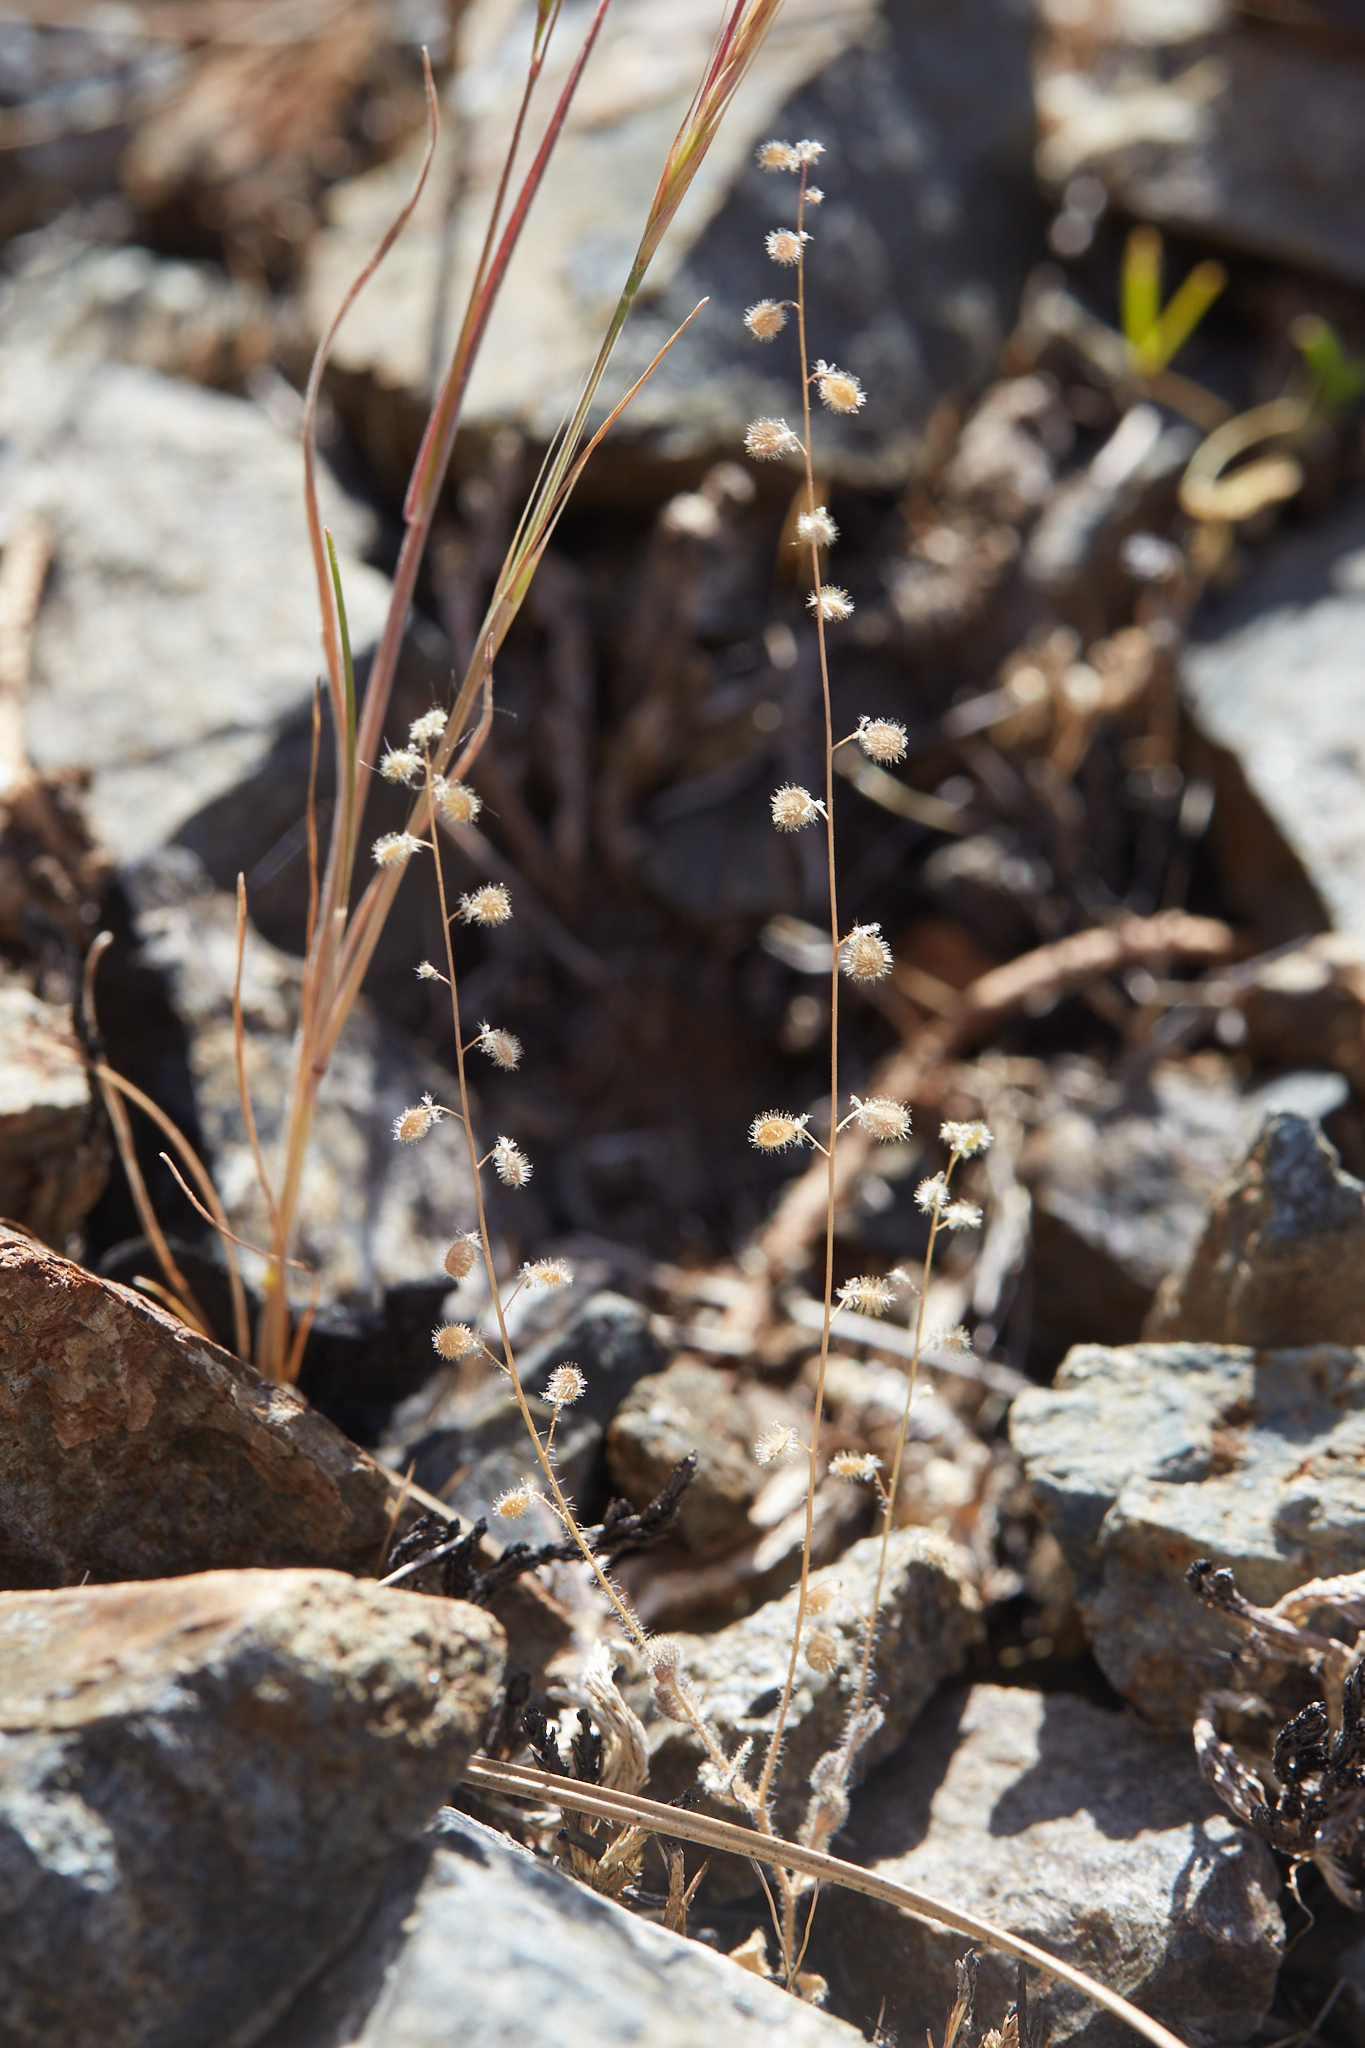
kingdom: Plantae
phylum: Tracheophyta
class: Magnoliopsida
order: Brassicales
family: Brassicaceae
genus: Athysanus
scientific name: Athysanus pusillus
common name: Common sandweed
